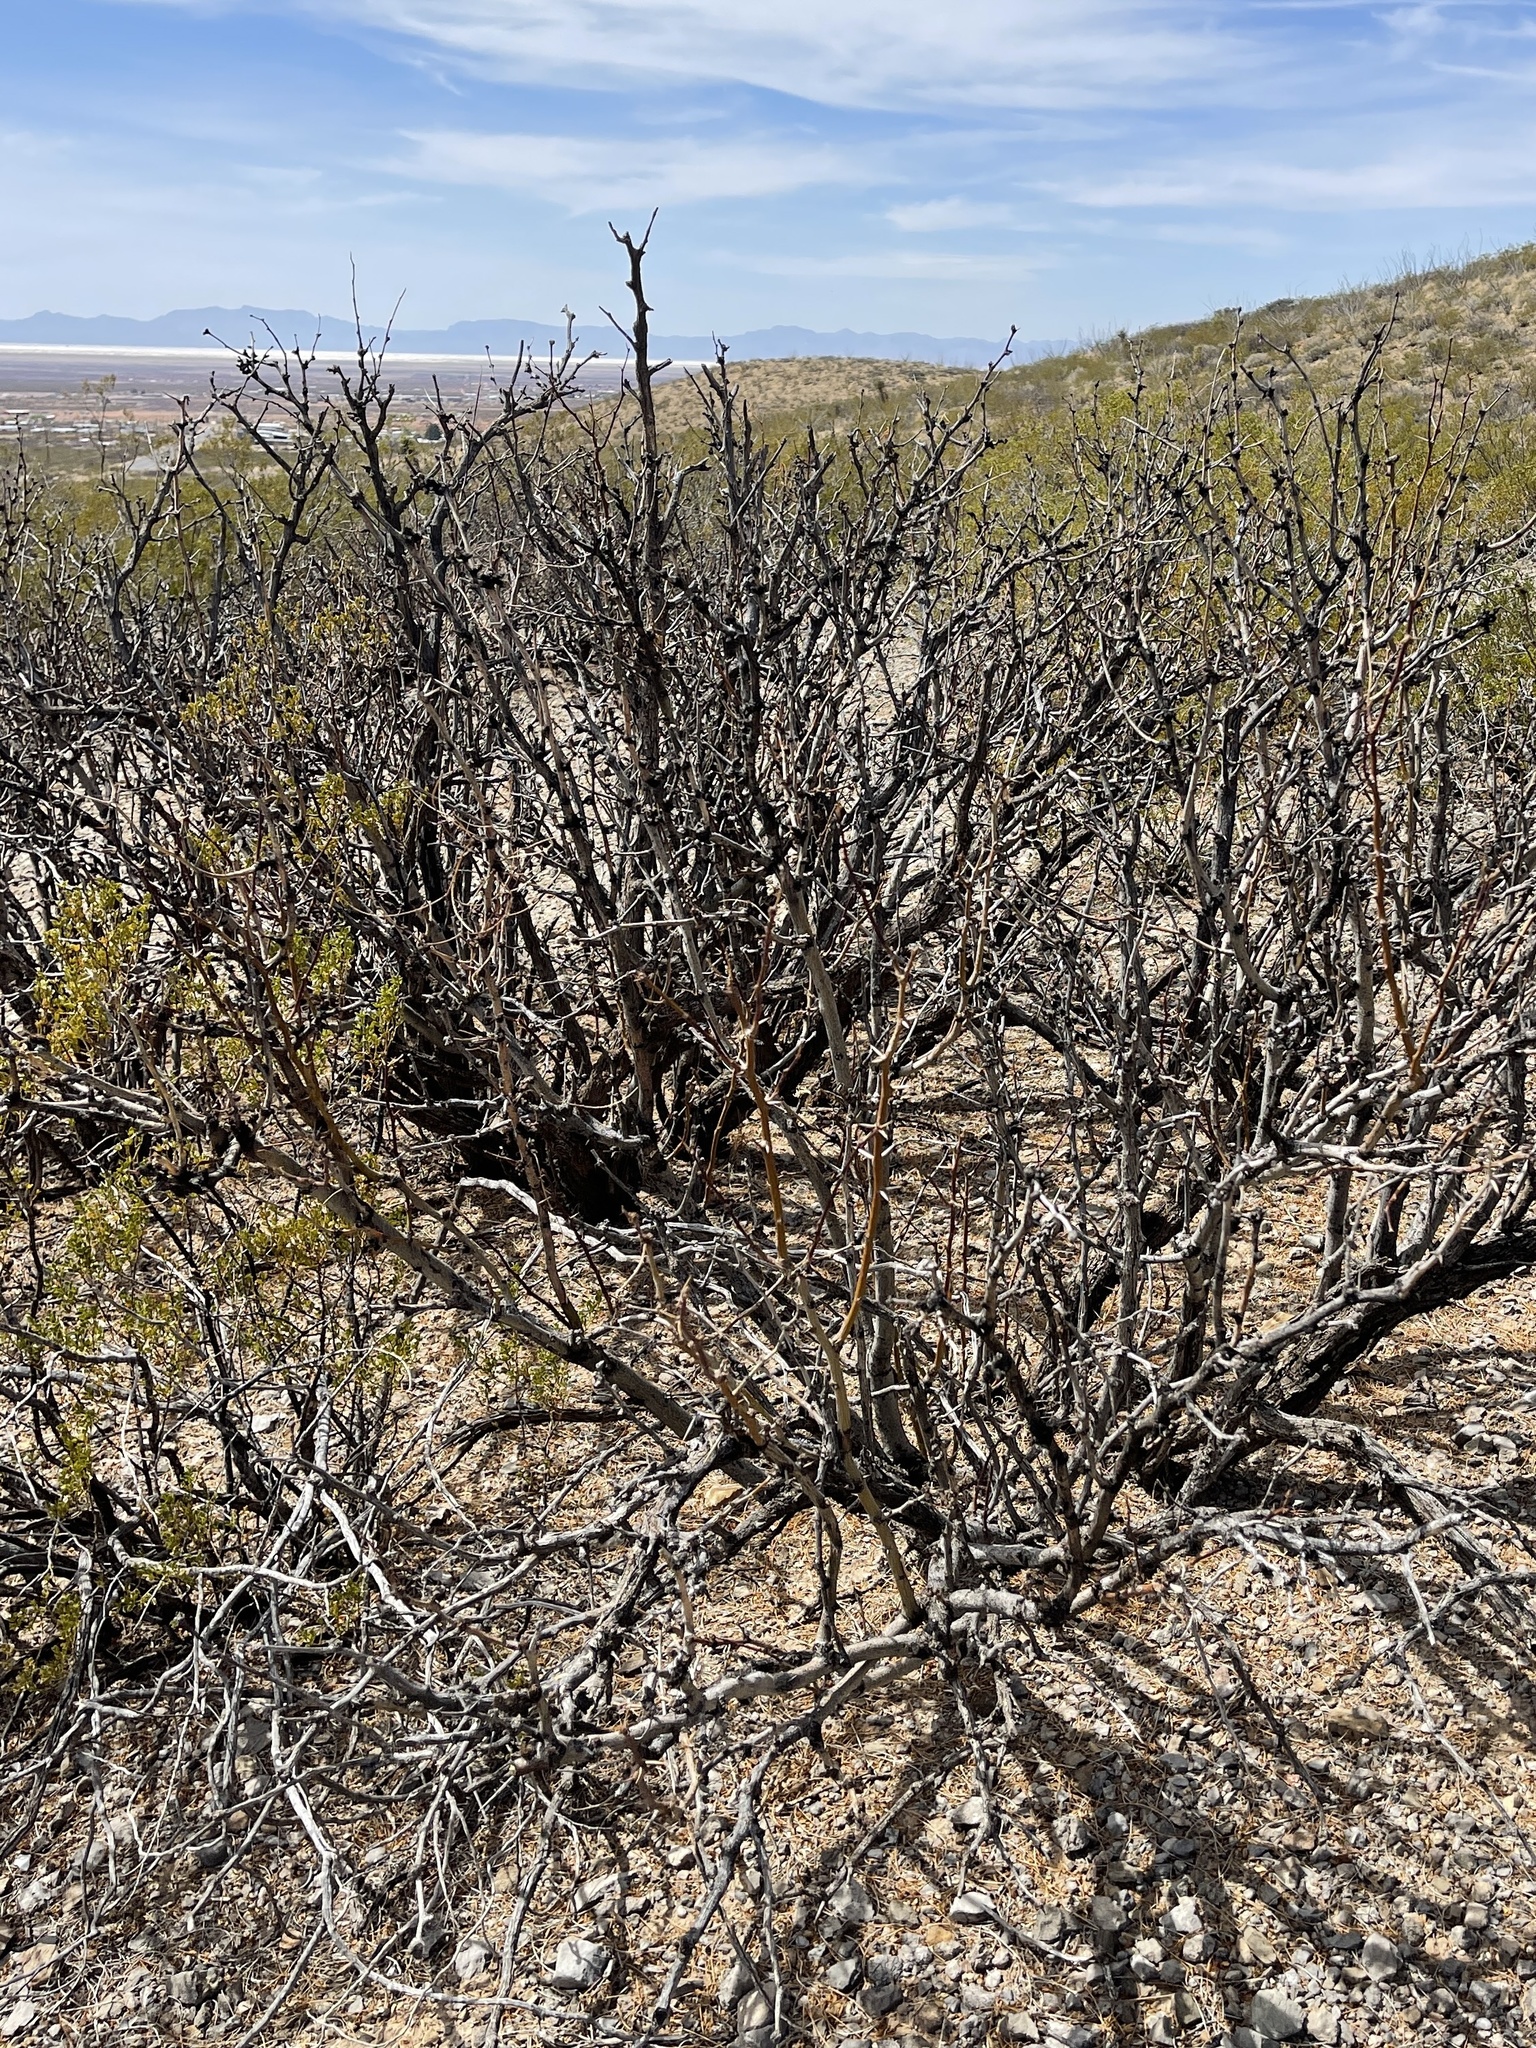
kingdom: Plantae
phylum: Tracheophyta
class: Magnoliopsida
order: Fabales
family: Fabaceae
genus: Prosopis
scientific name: Prosopis glandulosa
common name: Honey mesquite
